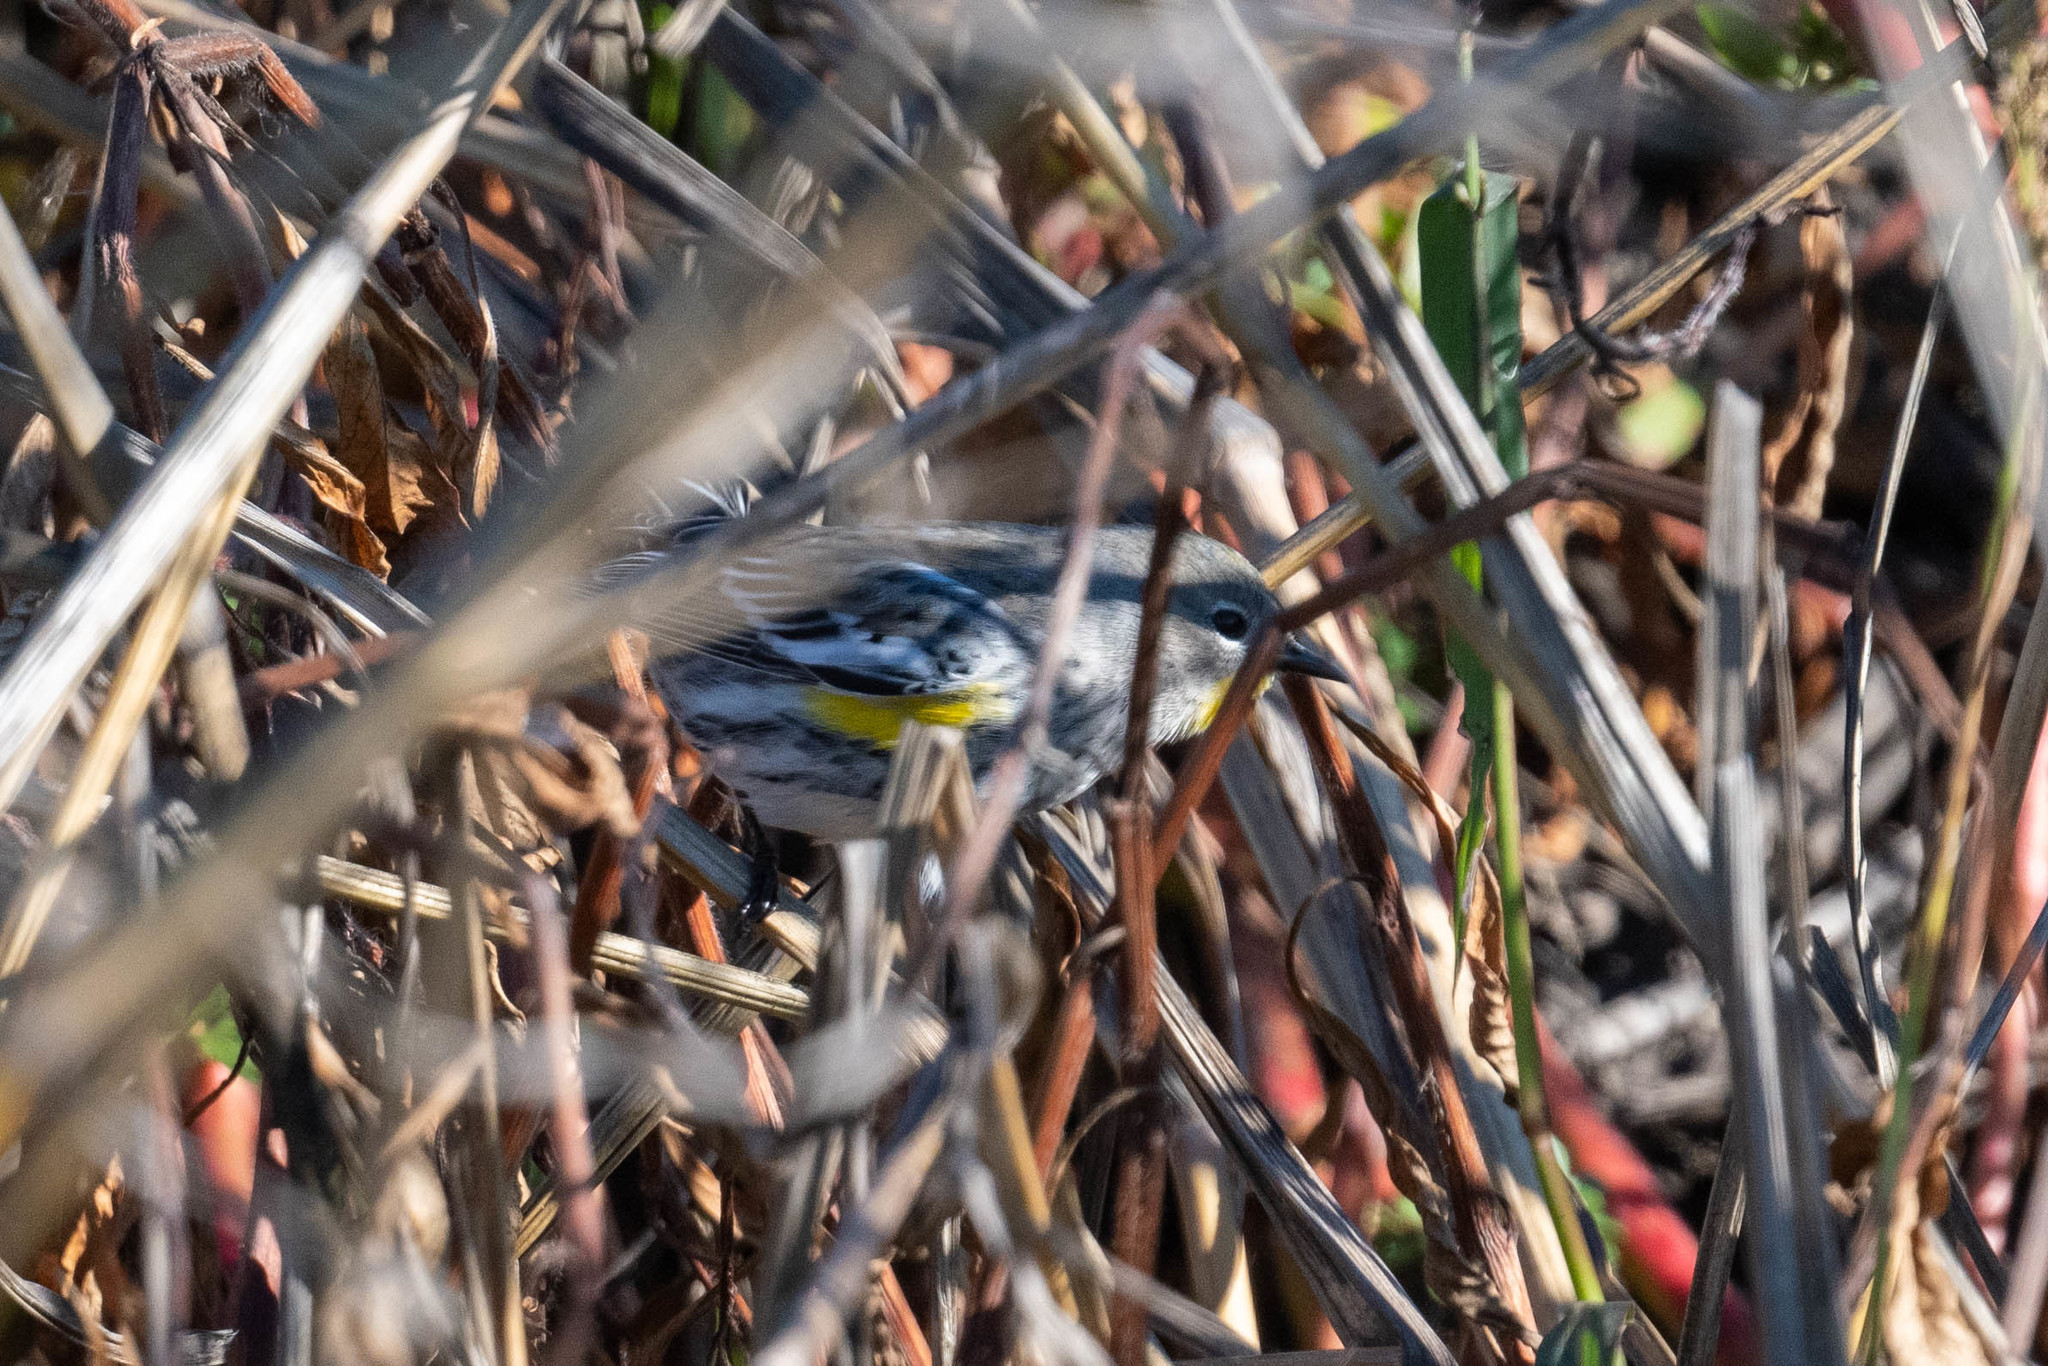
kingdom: Animalia
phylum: Chordata
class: Aves
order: Passeriformes
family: Parulidae
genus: Setophaga
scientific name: Setophaga coronata
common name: Myrtle warbler
